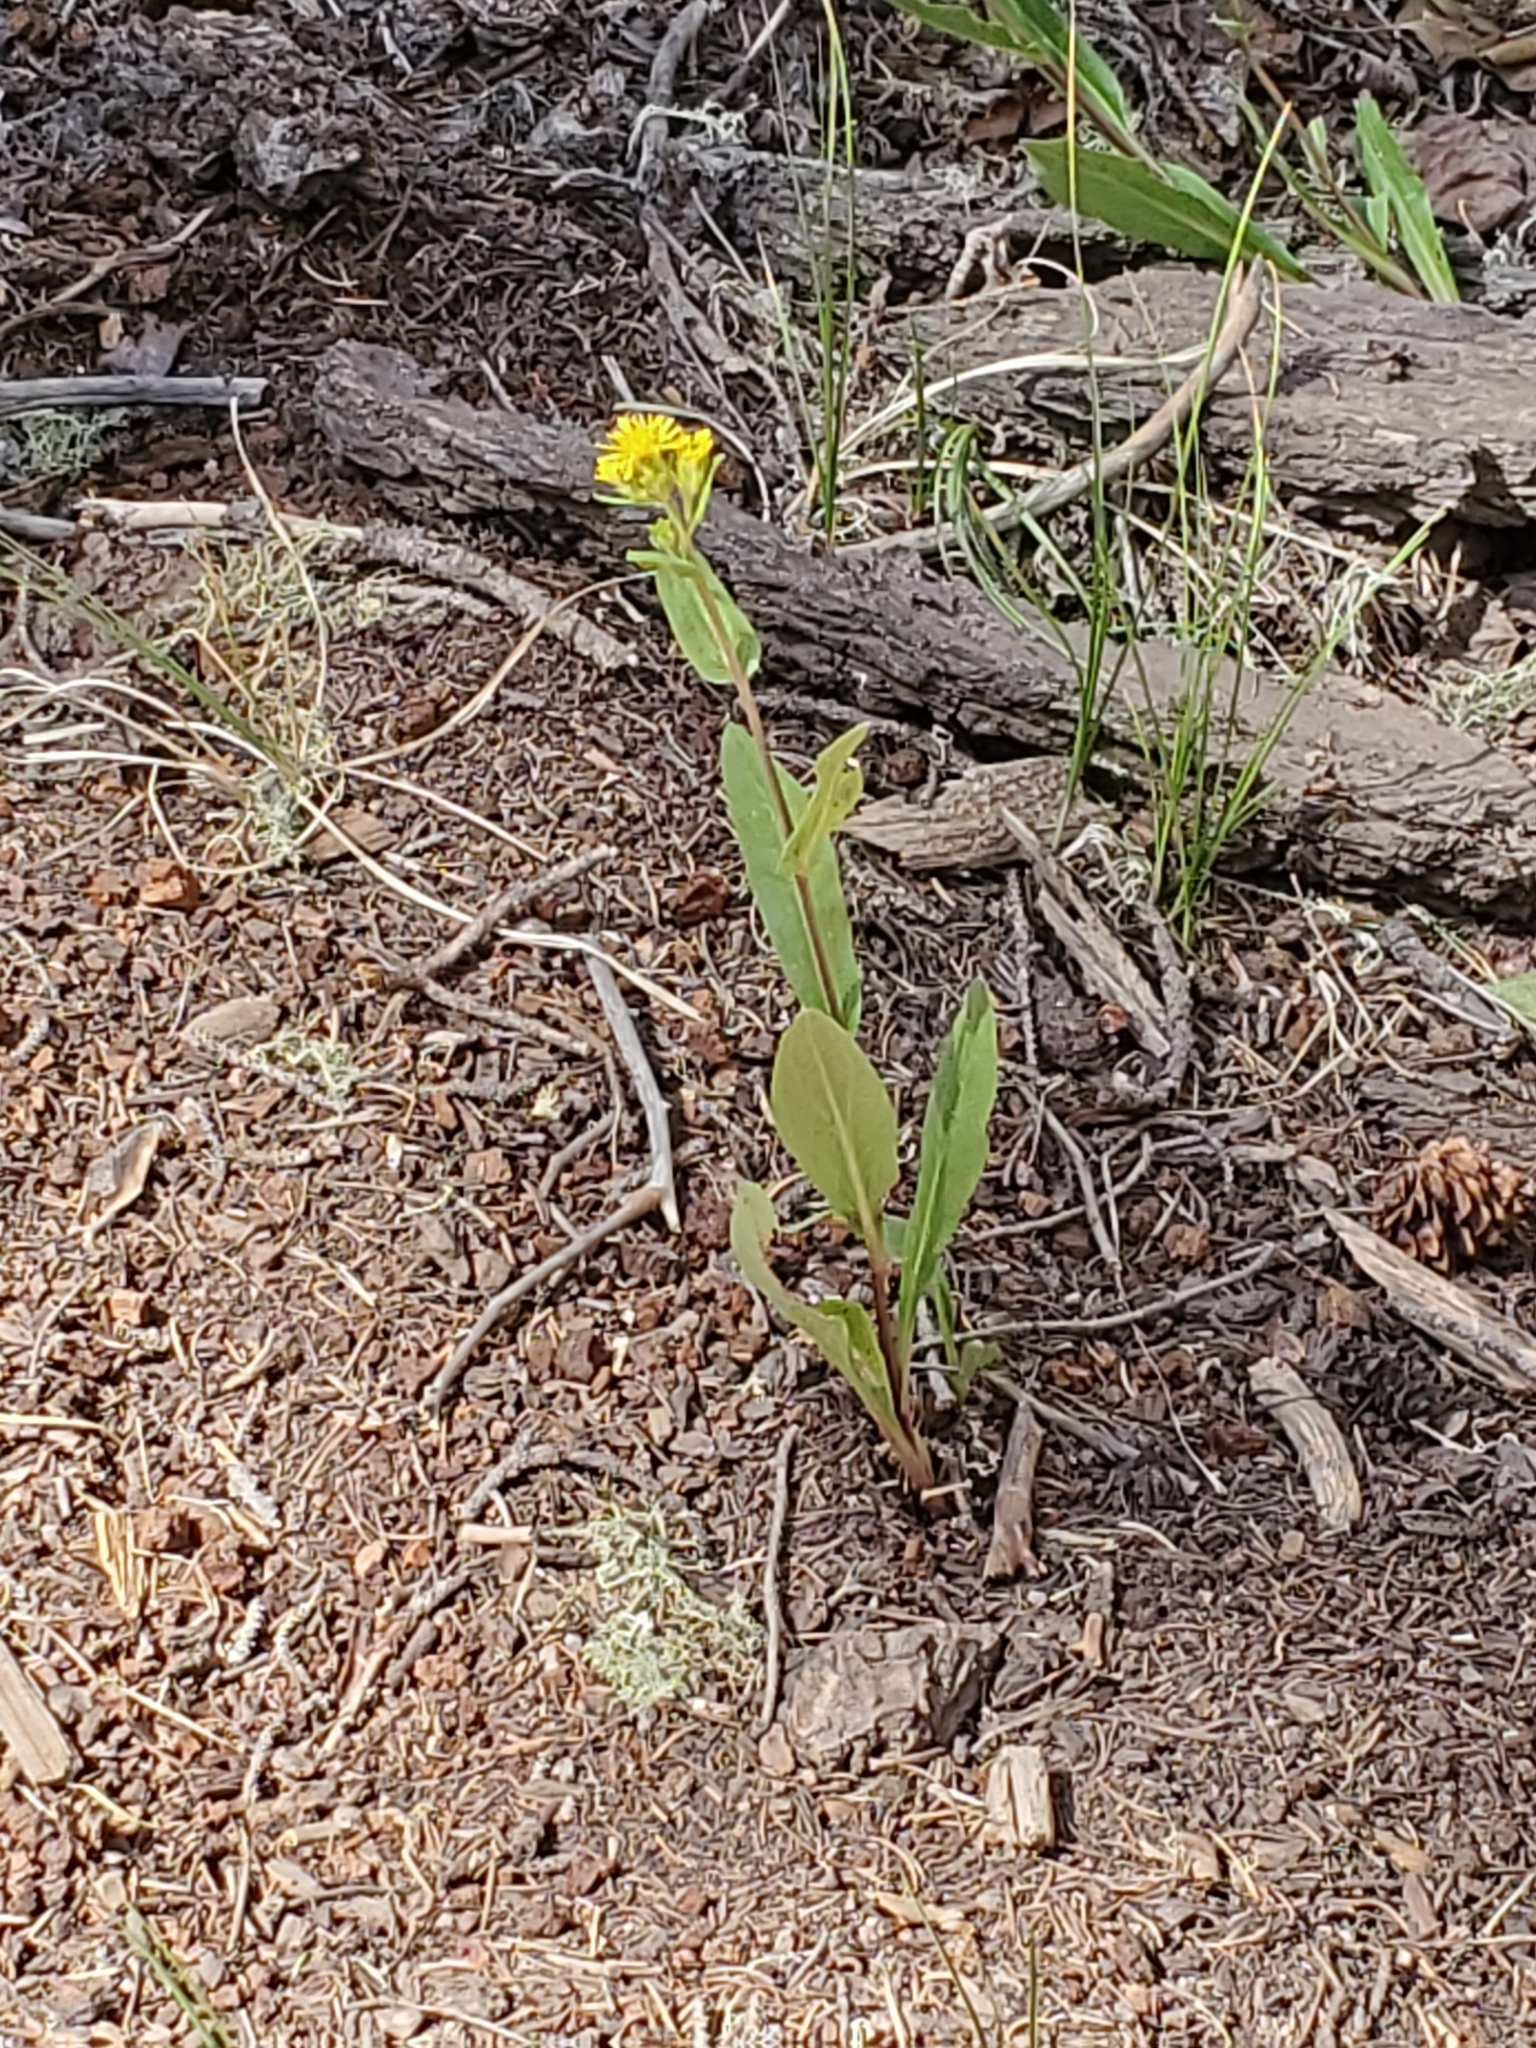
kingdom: Plantae
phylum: Tracheophyta
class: Magnoliopsida
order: Asterales
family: Asteraceae
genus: Oreochrysum
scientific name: Oreochrysum parryi
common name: Parry's goldenweed
